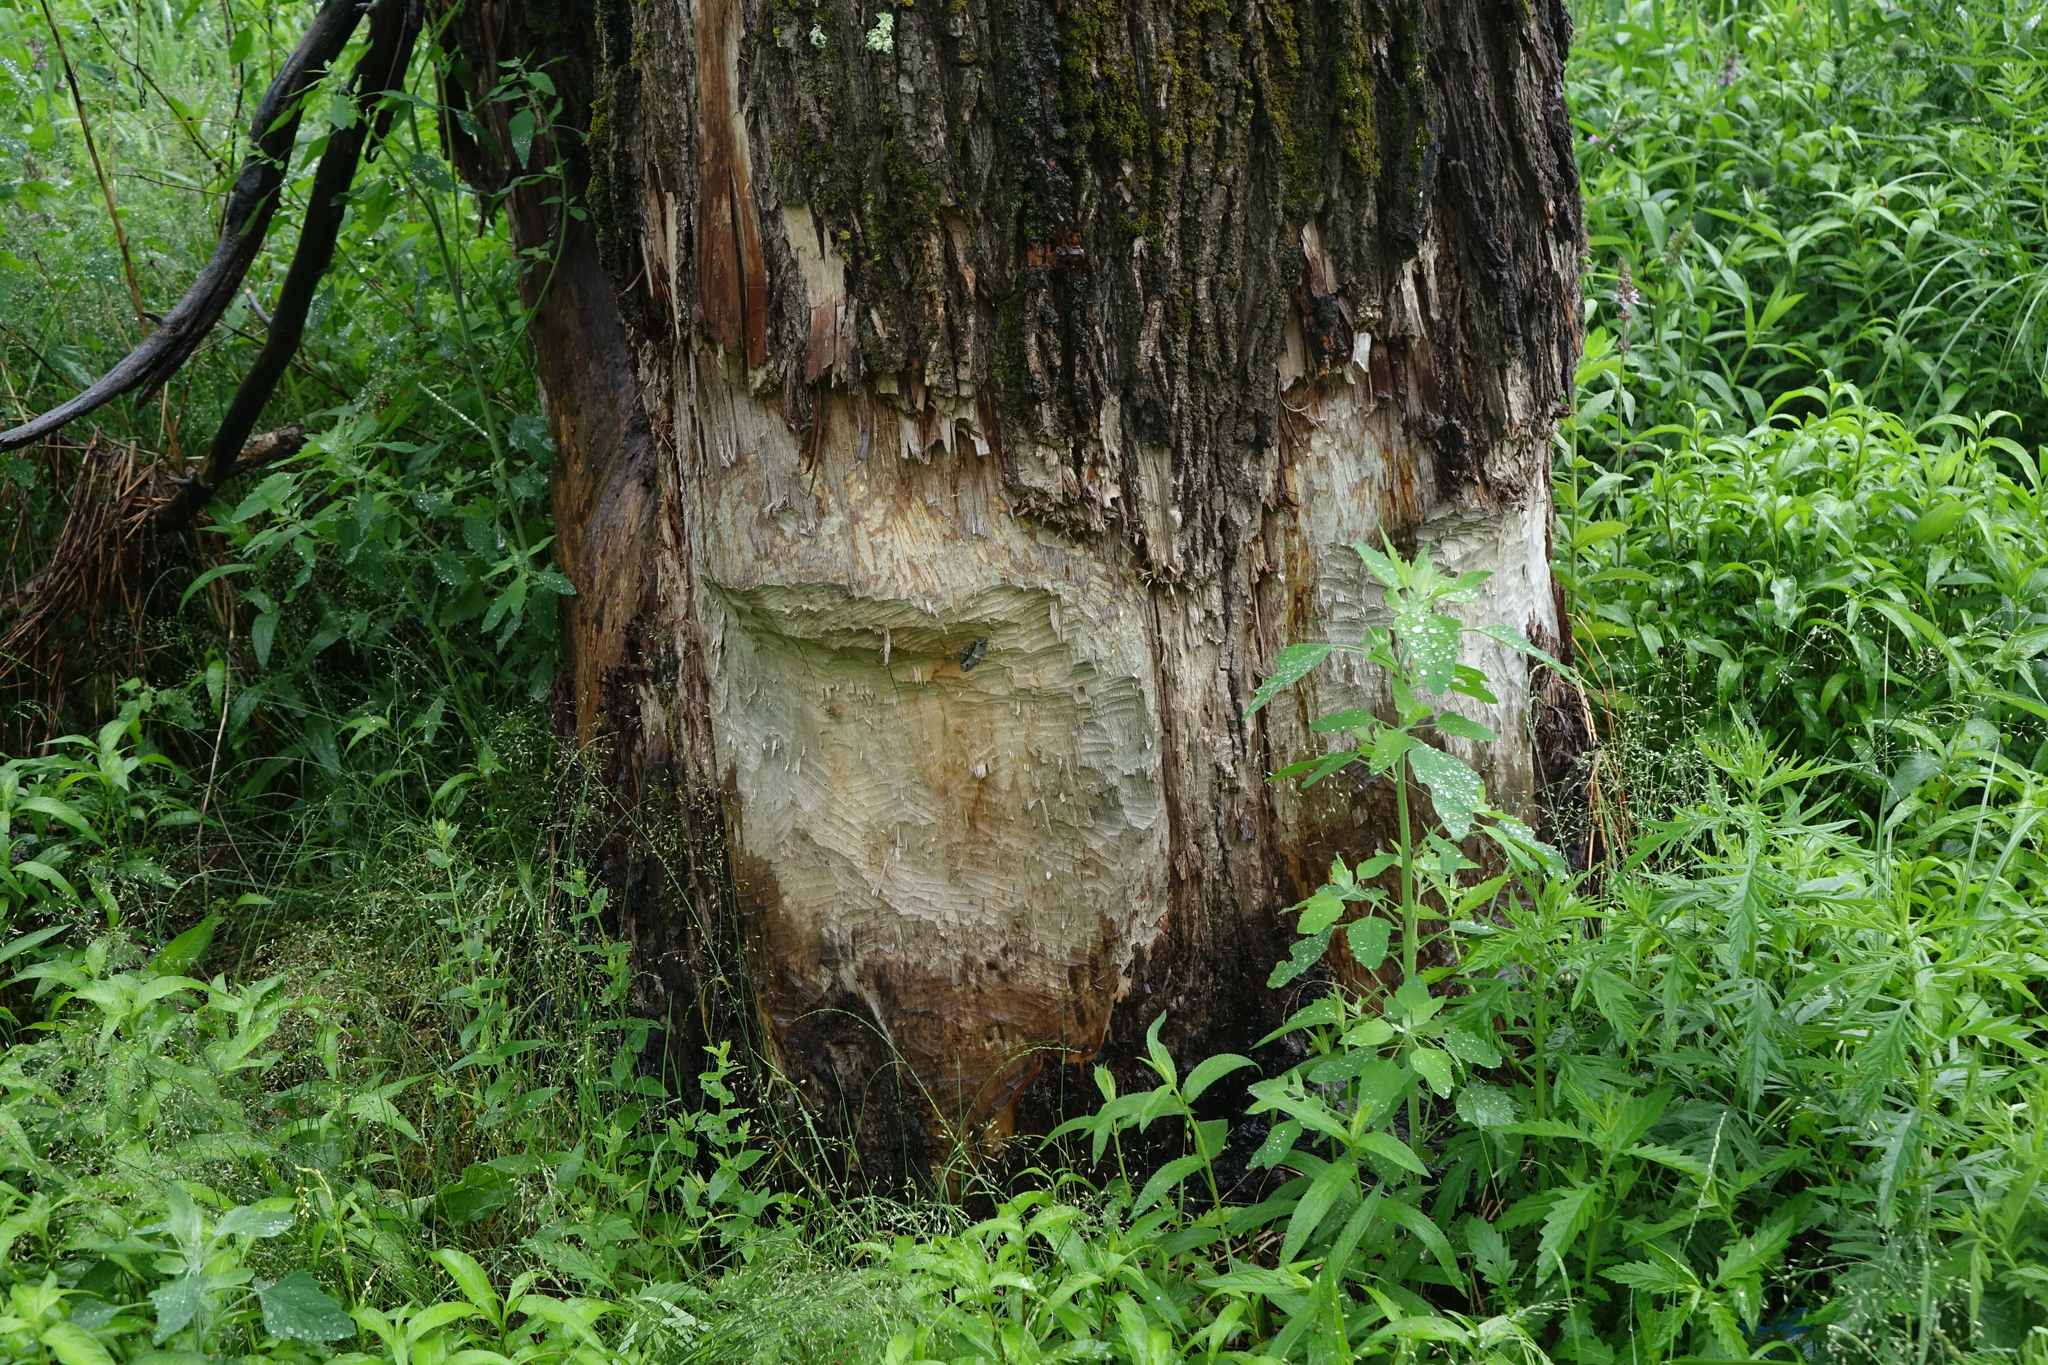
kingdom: Animalia
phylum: Chordata
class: Mammalia
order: Rodentia
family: Castoridae
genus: Castor
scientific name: Castor fiber
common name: Eurasian beaver
